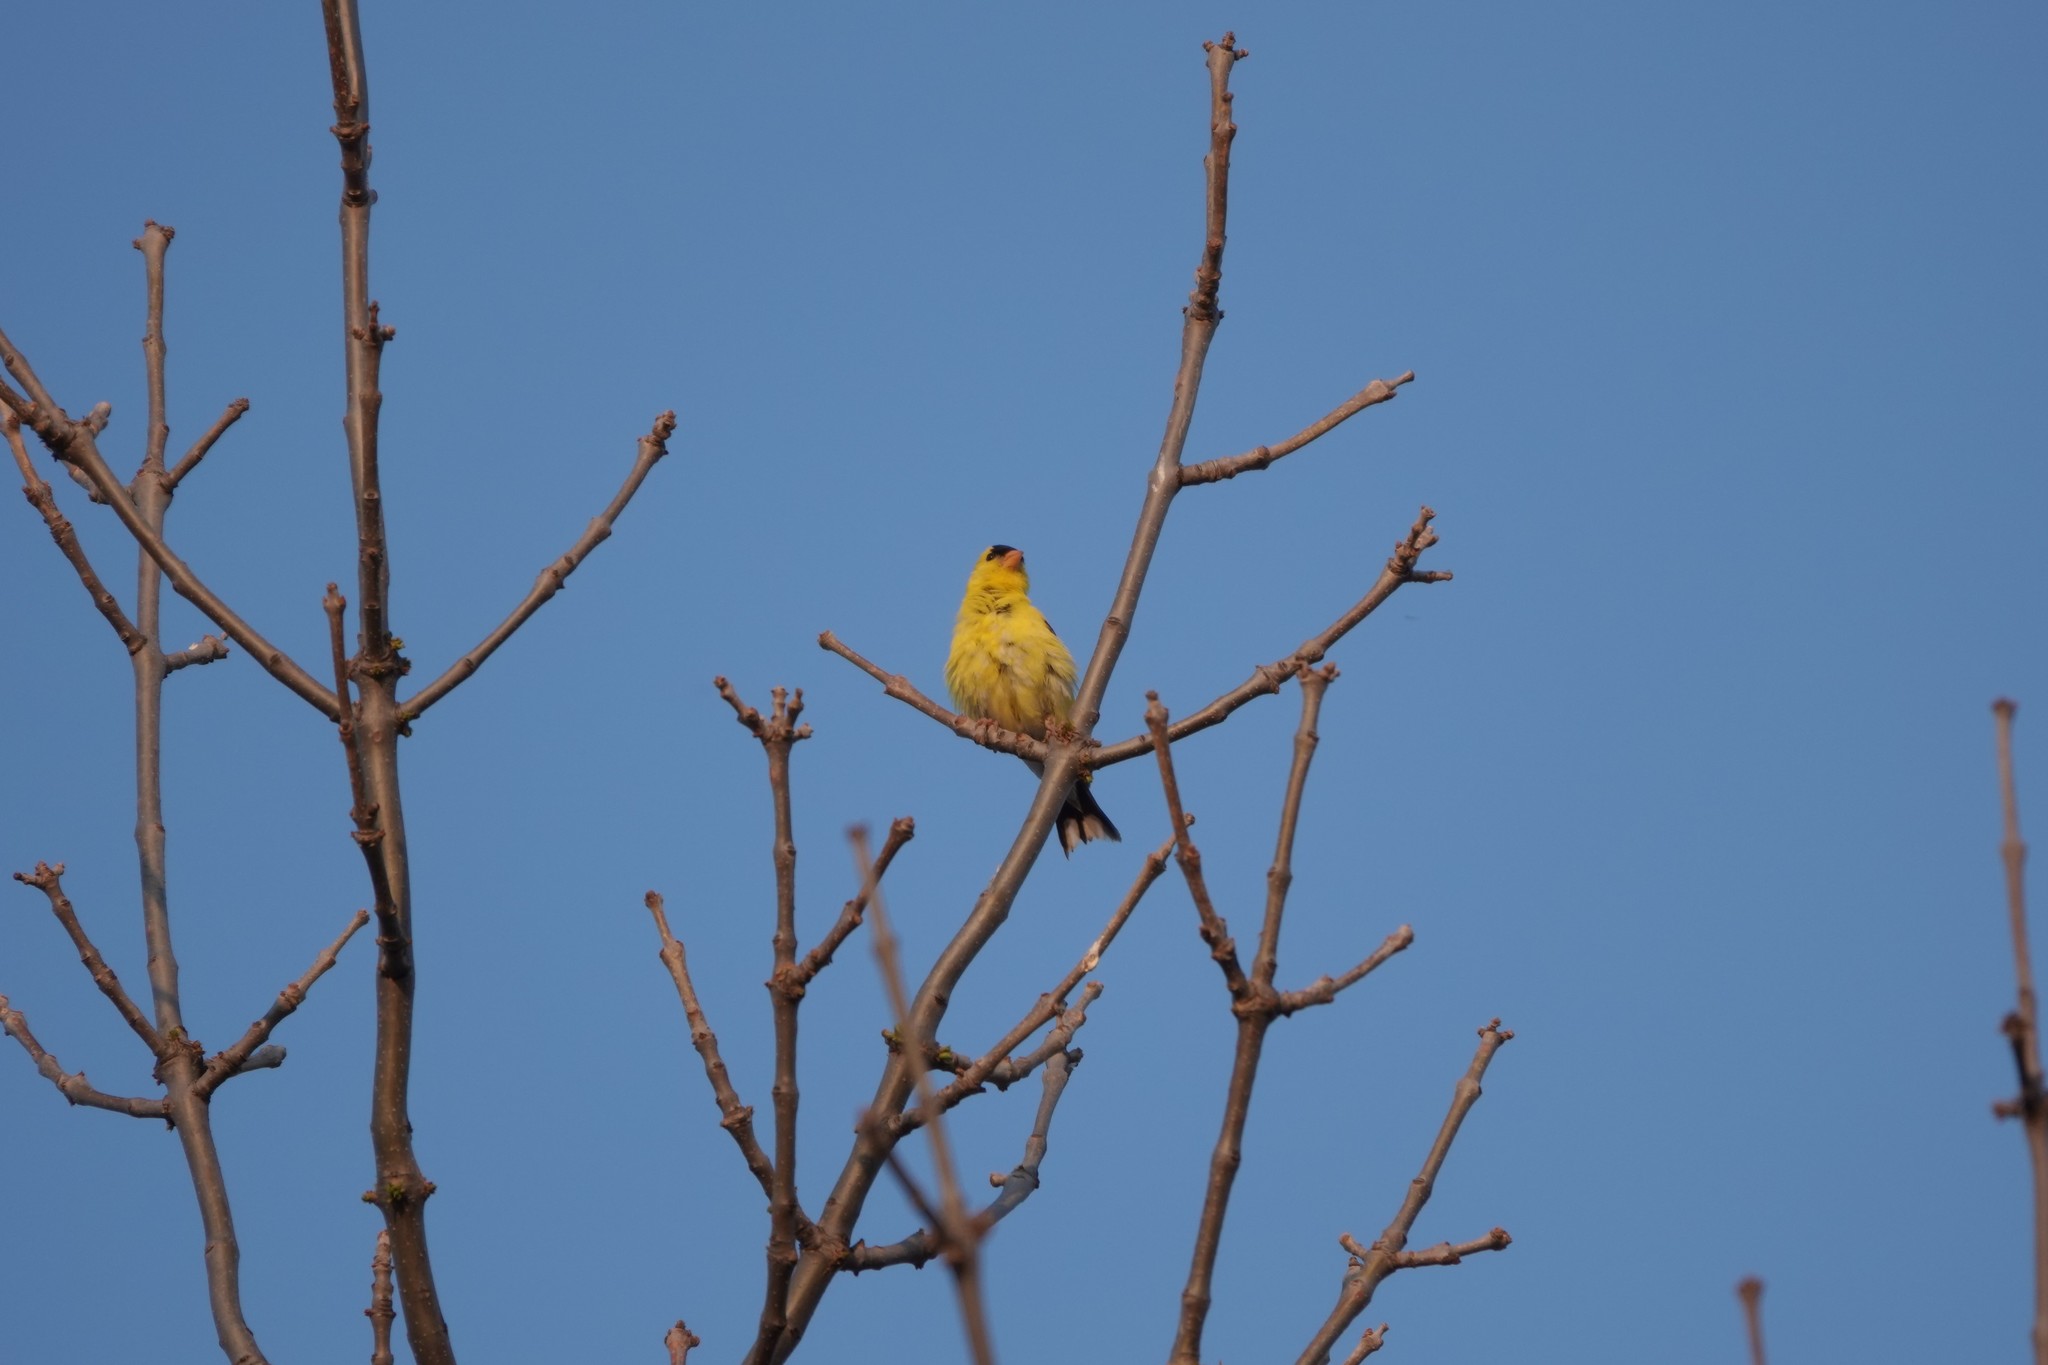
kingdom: Animalia
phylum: Chordata
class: Aves
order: Passeriformes
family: Fringillidae
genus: Spinus
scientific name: Spinus tristis
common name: American goldfinch
